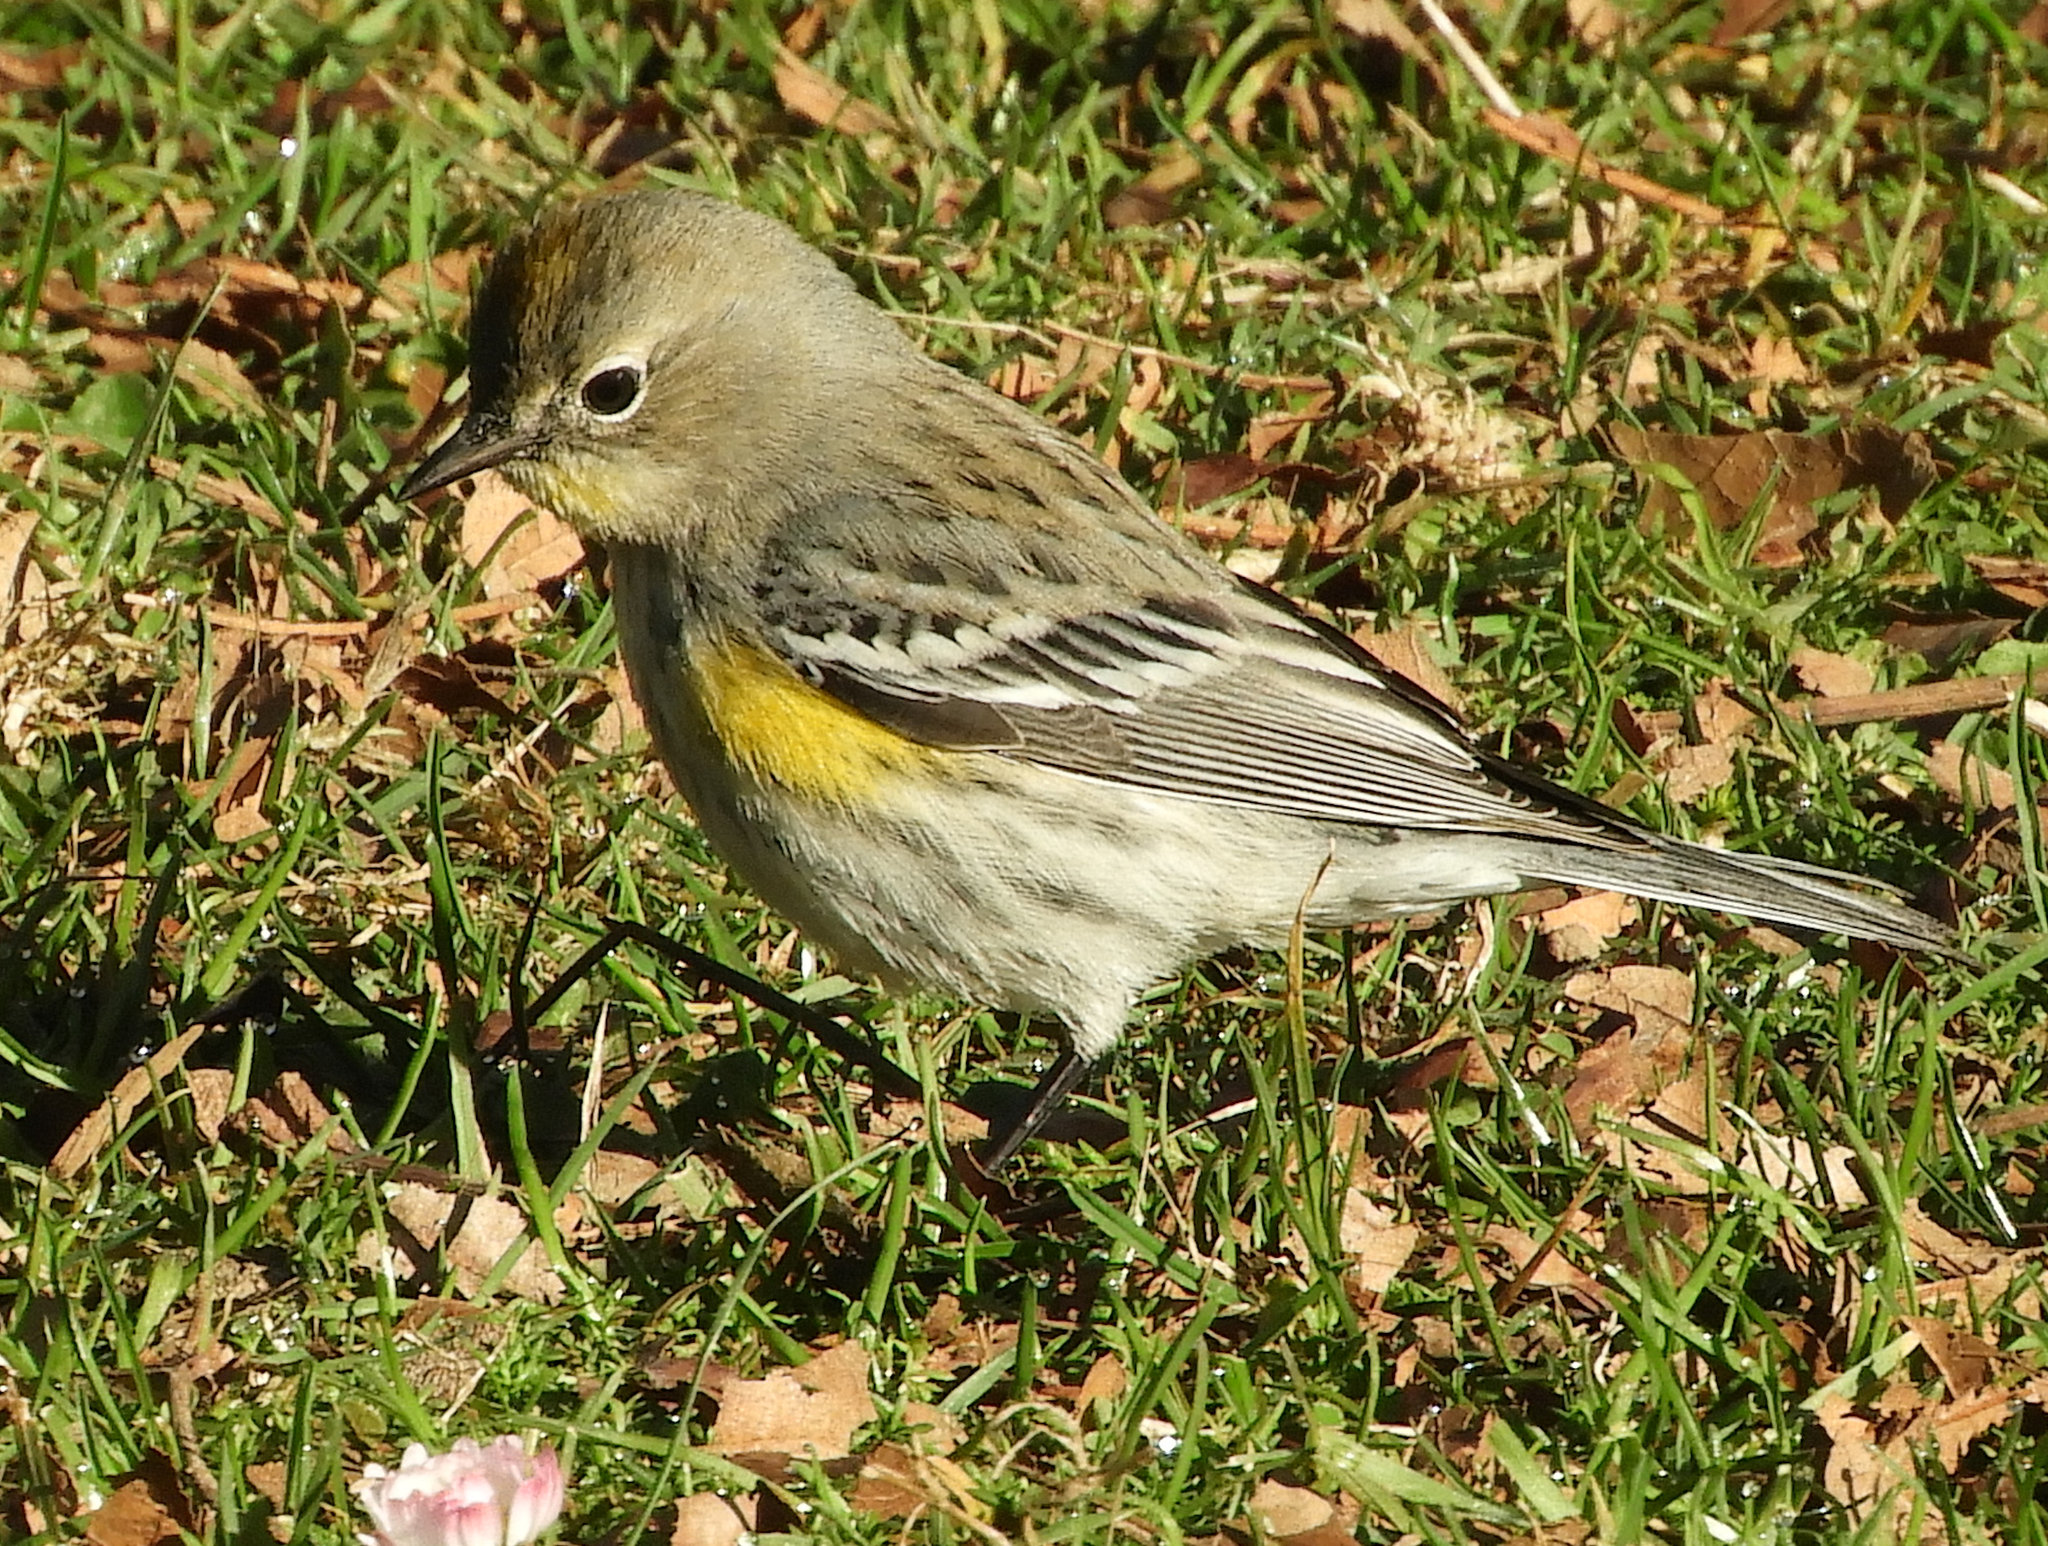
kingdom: Animalia
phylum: Chordata
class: Aves
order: Passeriformes
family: Parulidae
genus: Setophaga
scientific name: Setophaga auduboni
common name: Audubon's warbler
